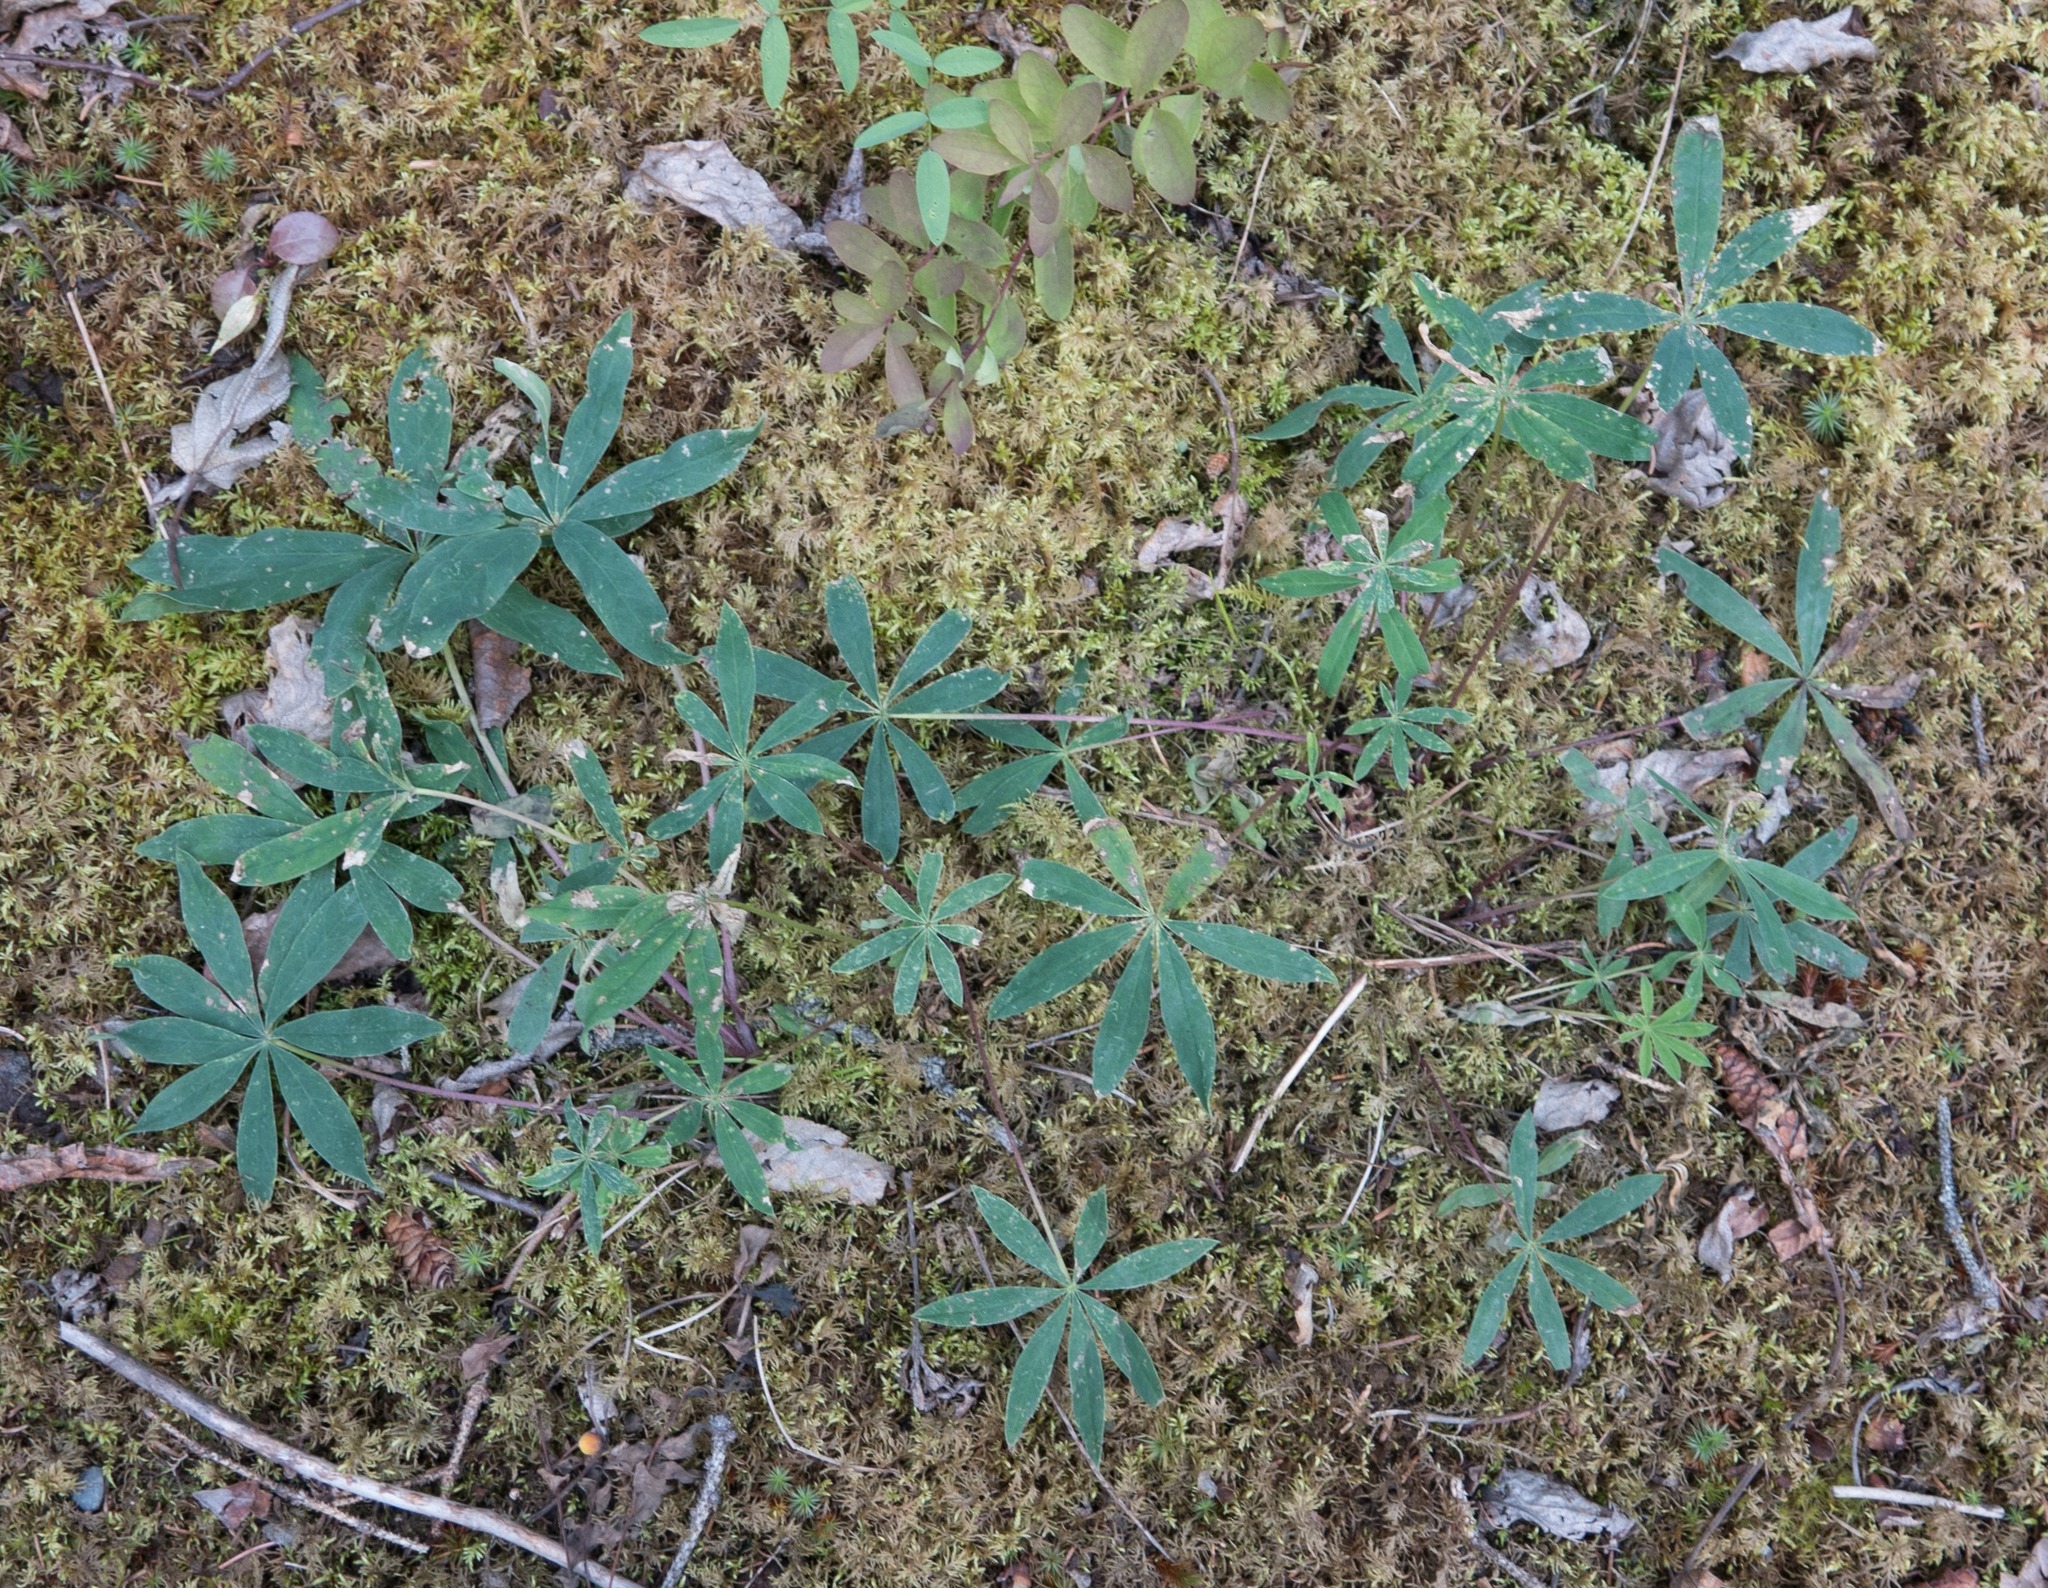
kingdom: Plantae
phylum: Tracheophyta
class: Magnoliopsida
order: Fabales
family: Fabaceae
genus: Lupinus
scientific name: Lupinus arcticus
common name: Arctic lupine
